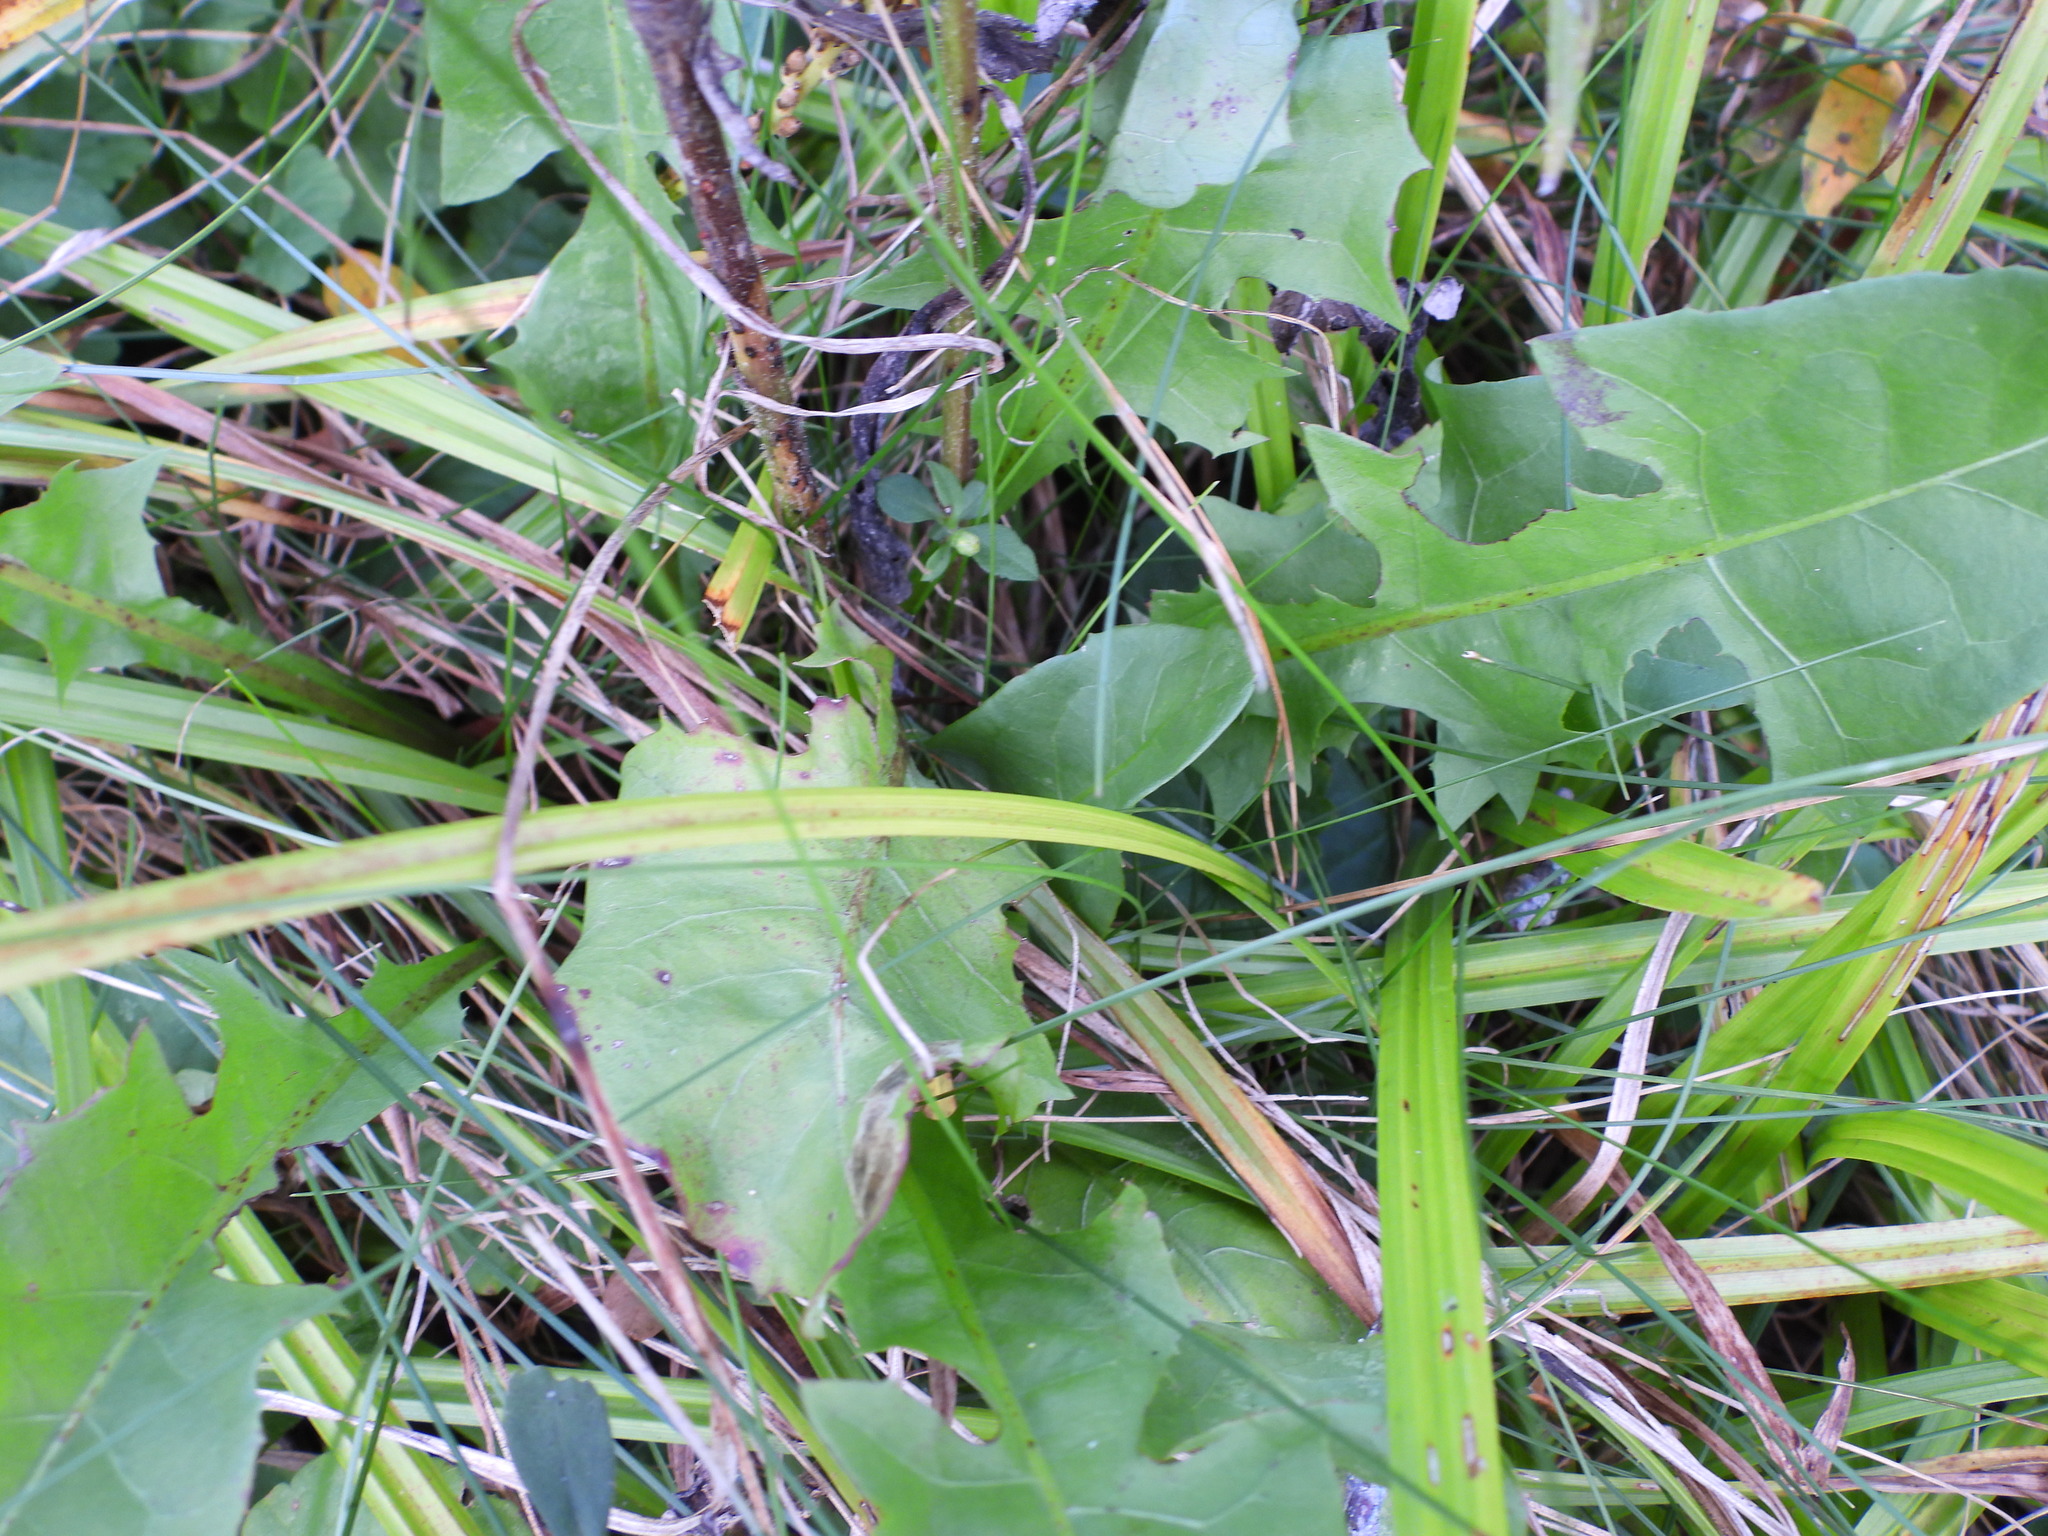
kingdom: Plantae
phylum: Tracheophyta
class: Magnoliopsida
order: Asterales
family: Asteraceae
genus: Taraxacum
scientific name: Taraxacum officinale
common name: Common dandelion
